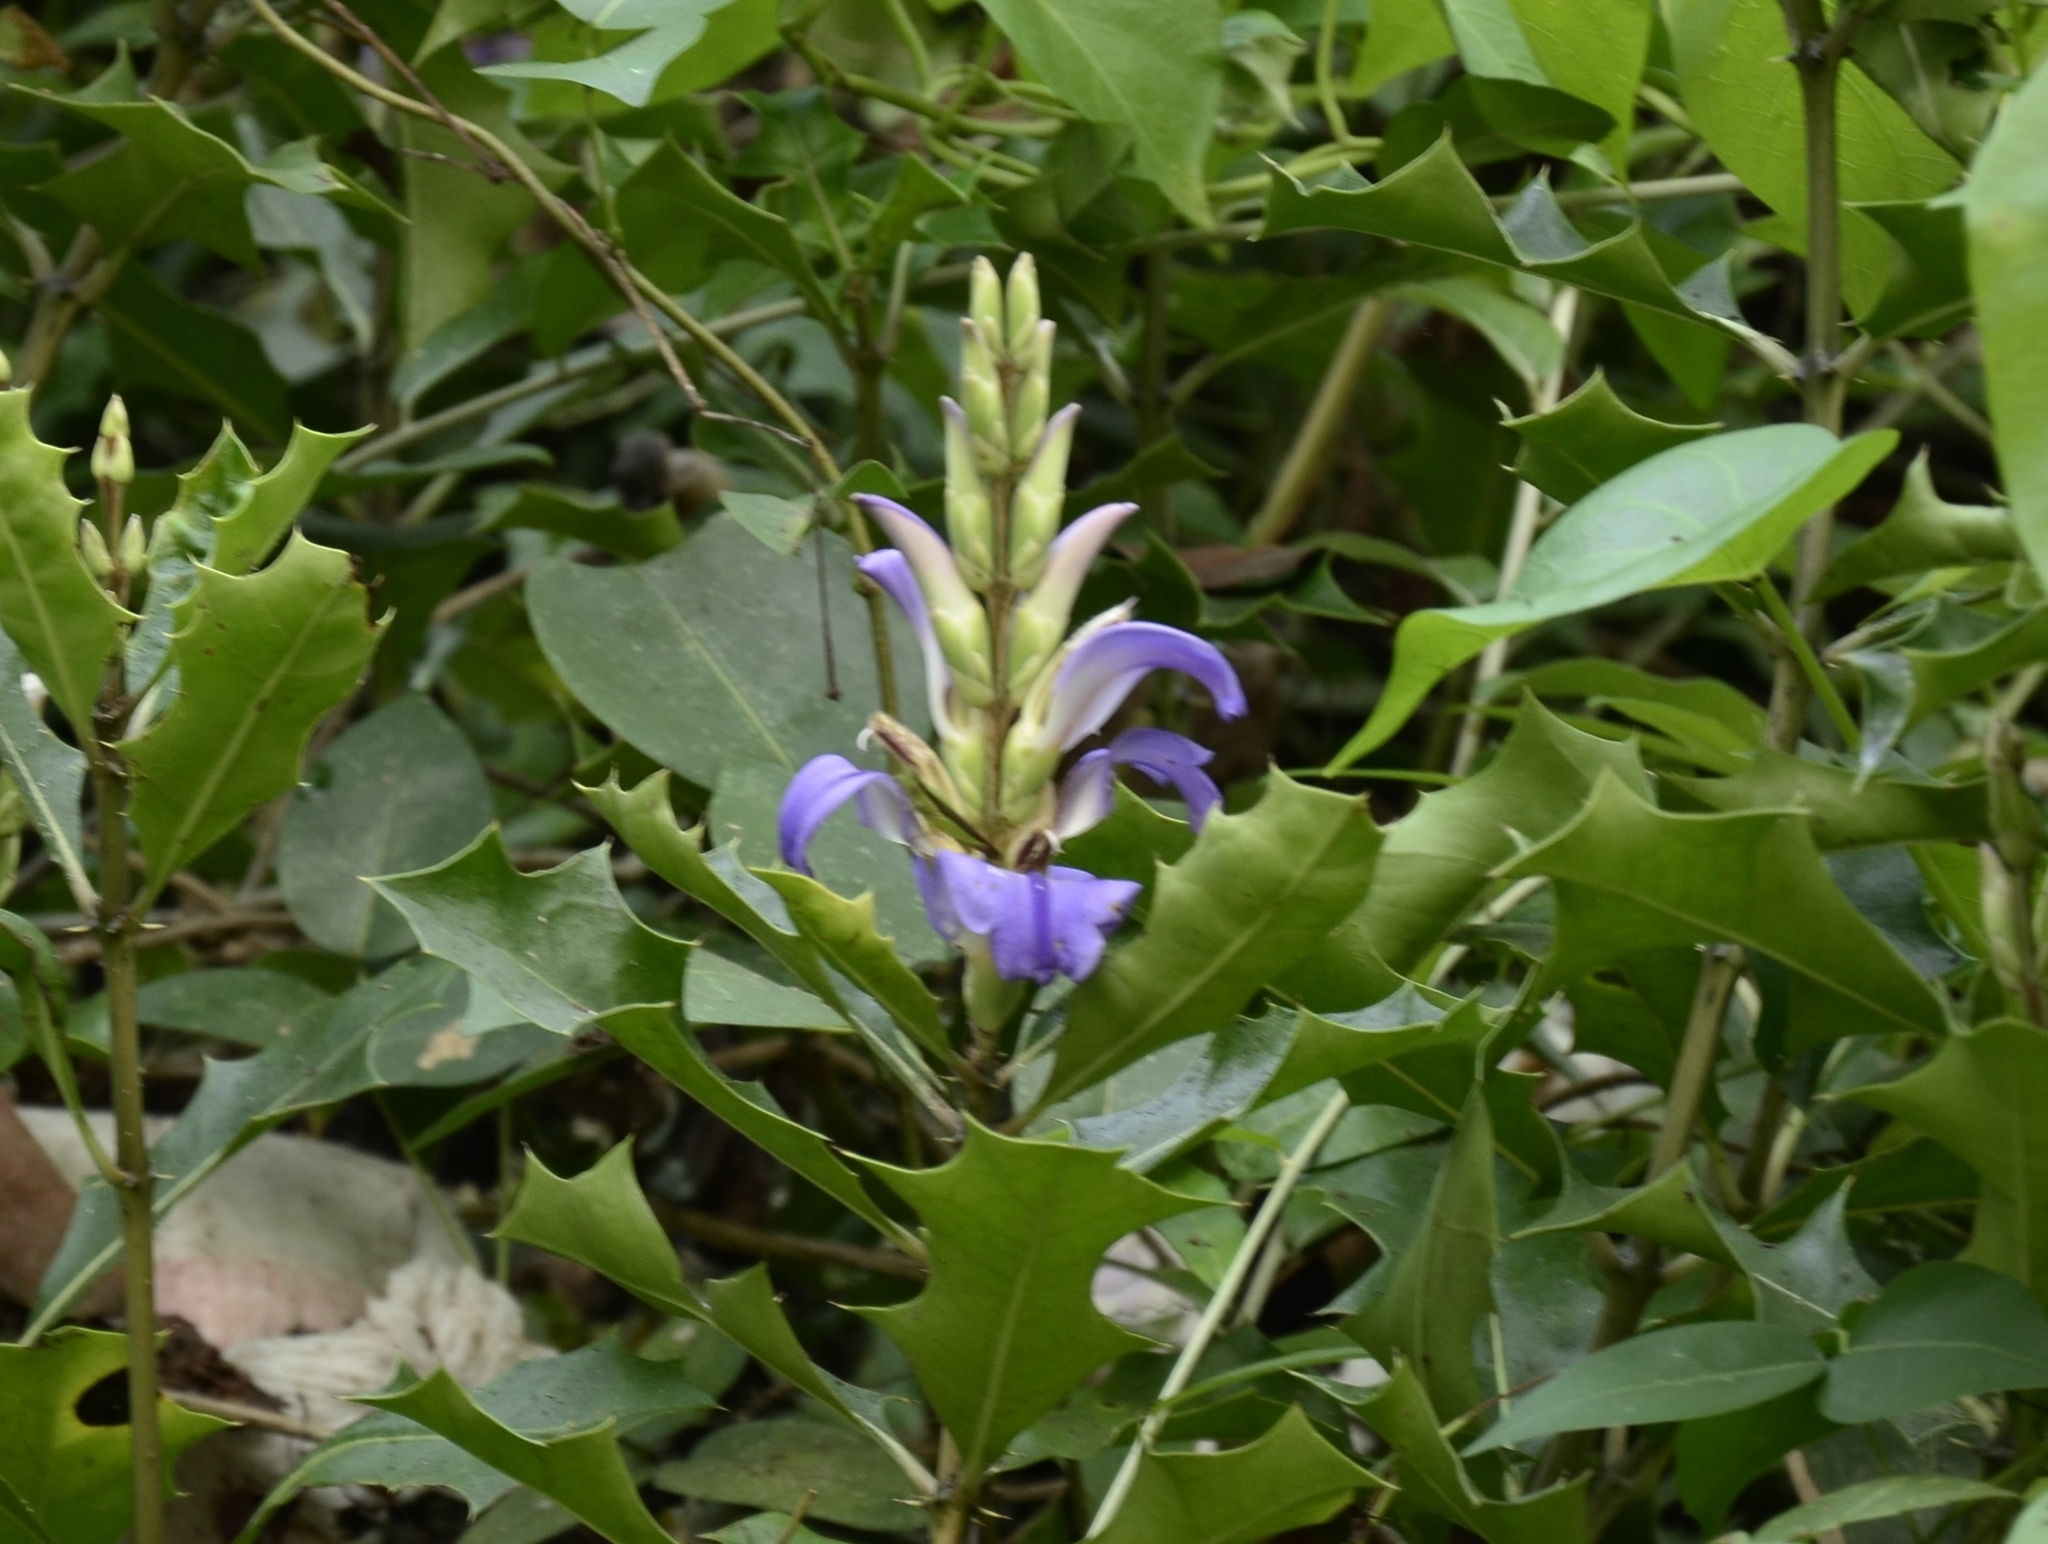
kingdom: Plantae
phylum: Tracheophyta
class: Magnoliopsida
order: Lamiales
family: Acanthaceae
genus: Acanthus
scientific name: Acanthus ilicifolius
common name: Holy mangrove
